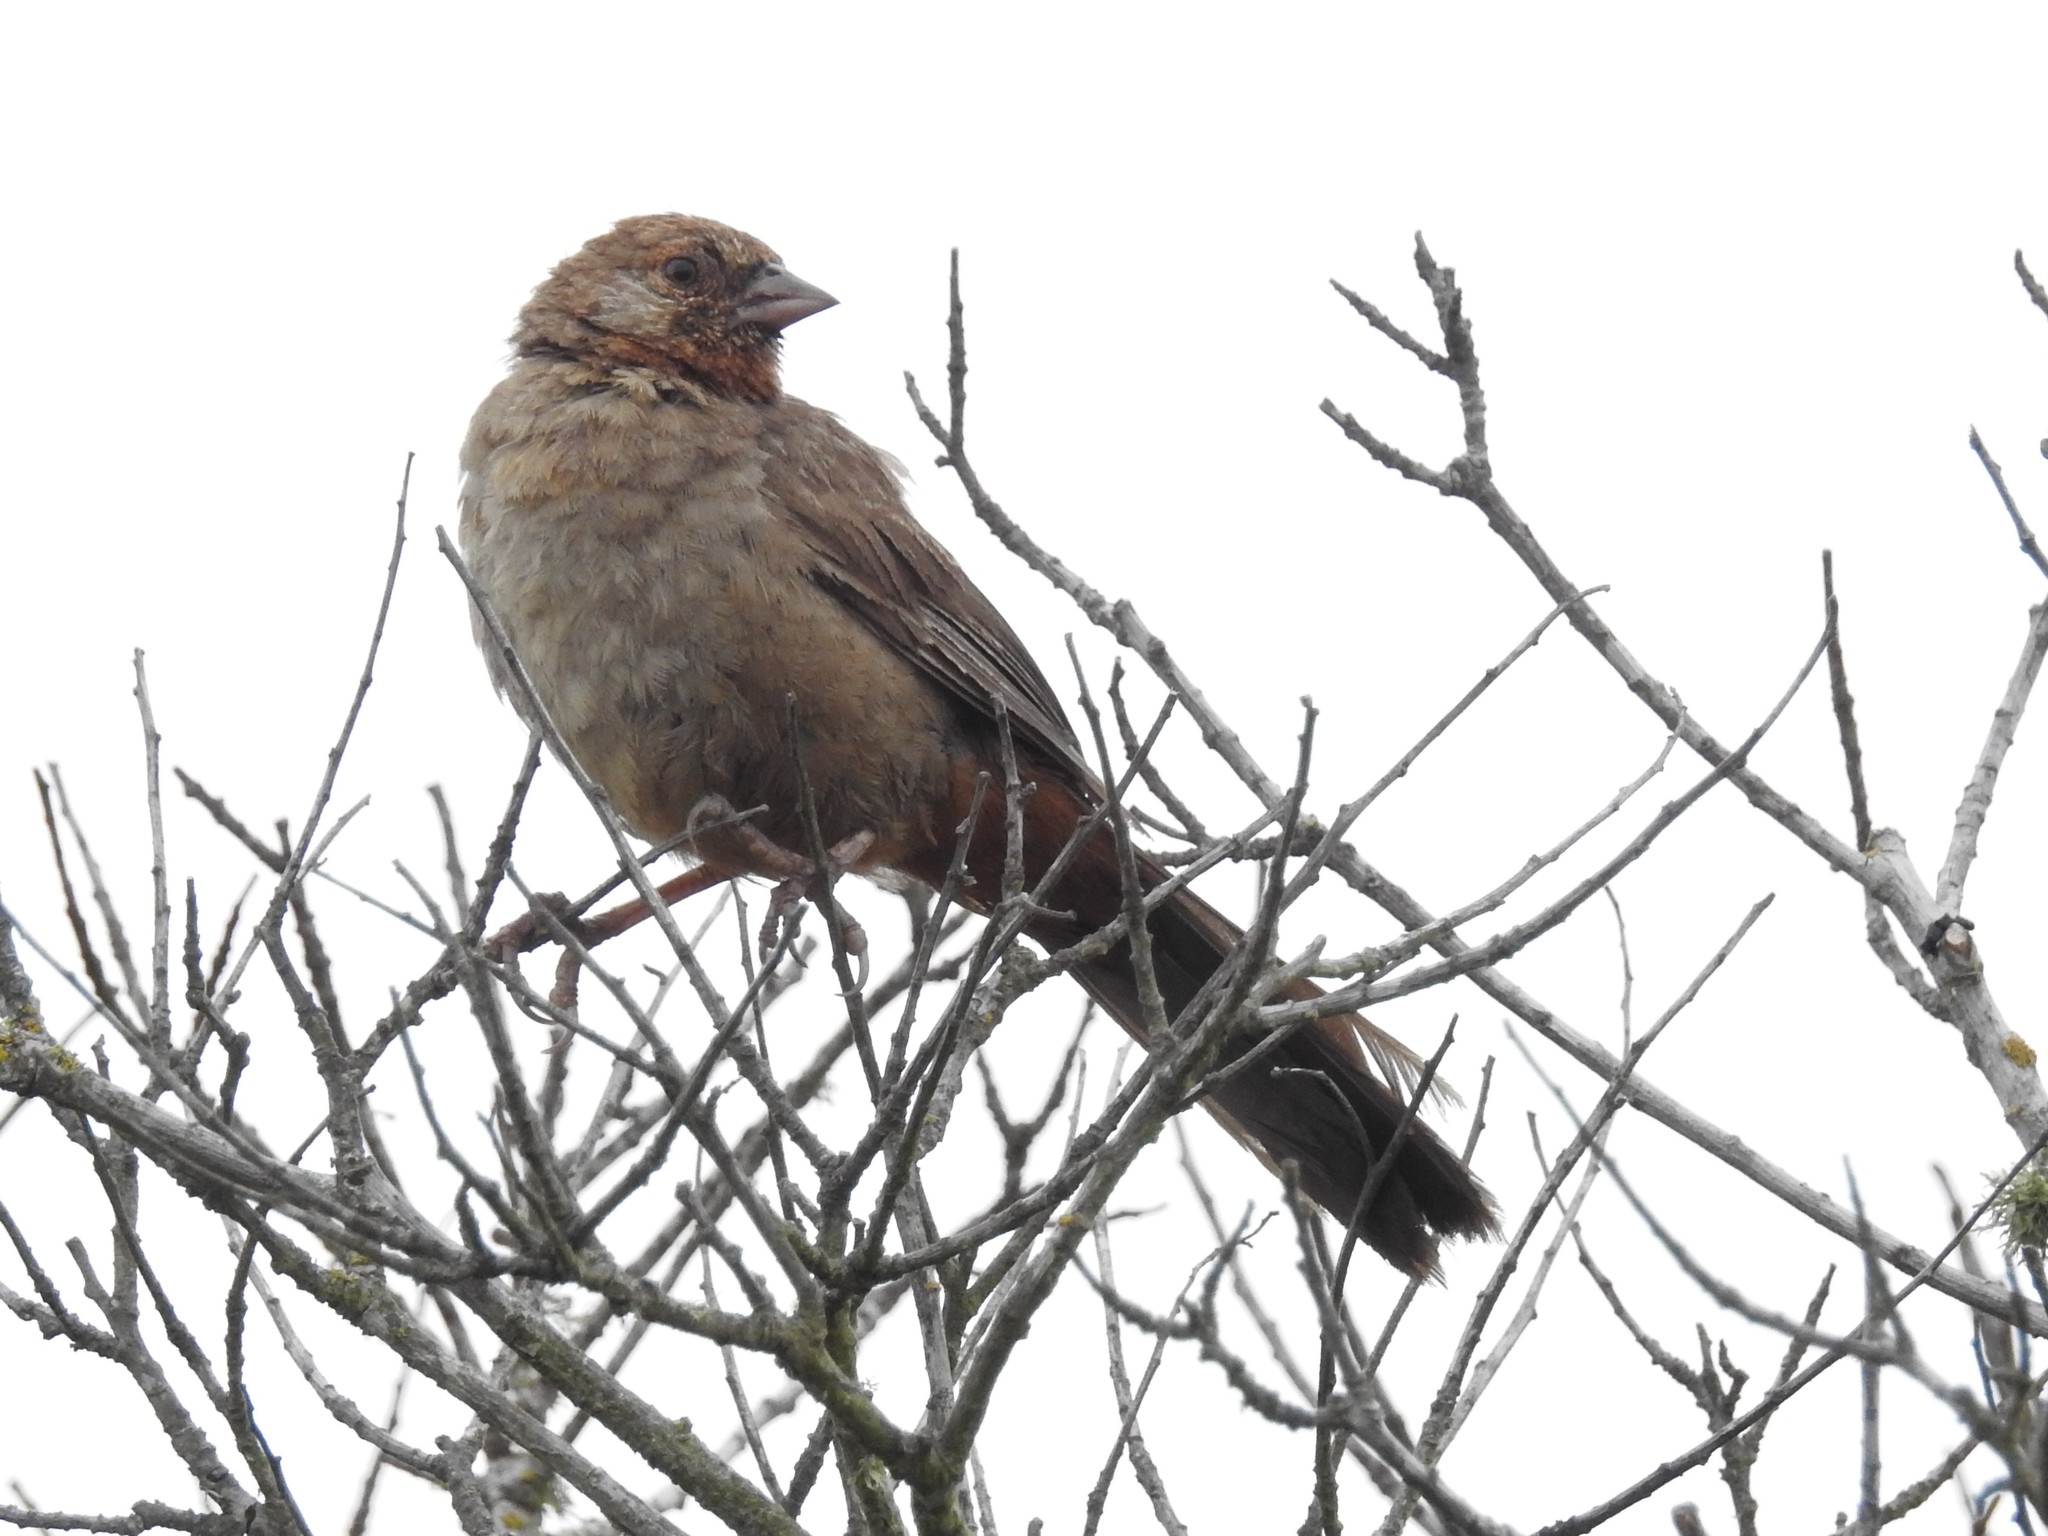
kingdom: Animalia
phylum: Chordata
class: Aves
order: Passeriformes
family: Passerellidae
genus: Melozone
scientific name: Melozone crissalis
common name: California towhee
